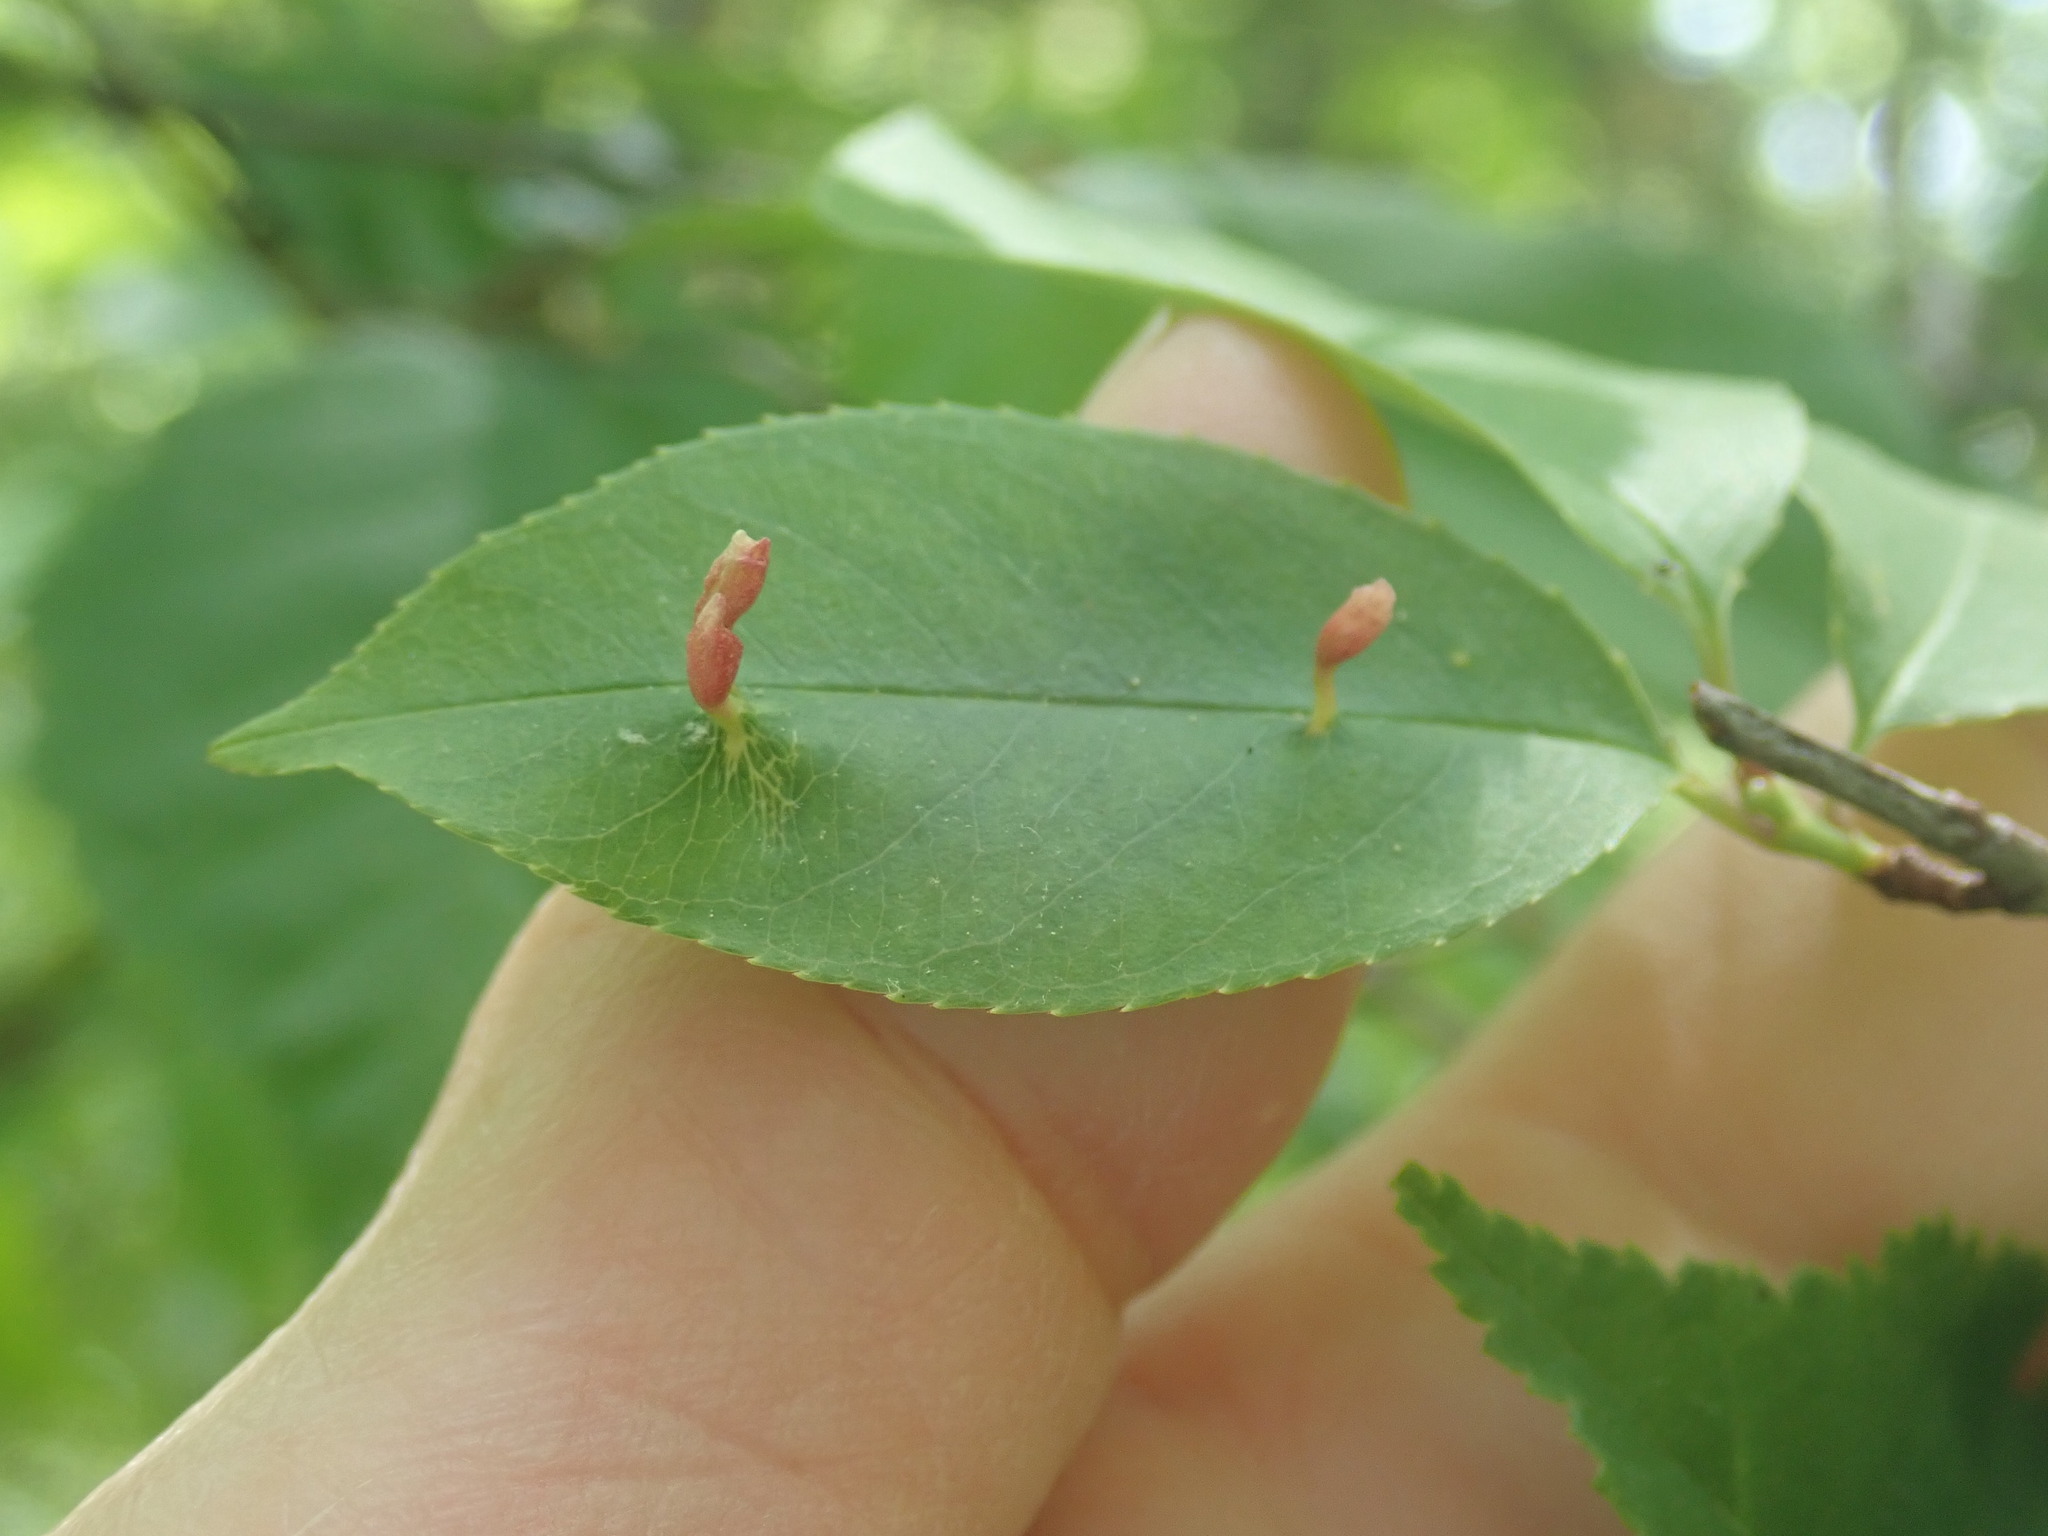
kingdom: Animalia
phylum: Arthropoda
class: Arachnida
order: Trombidiformes
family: Eriophyidae
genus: Eriophyes
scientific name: Eriophyes
